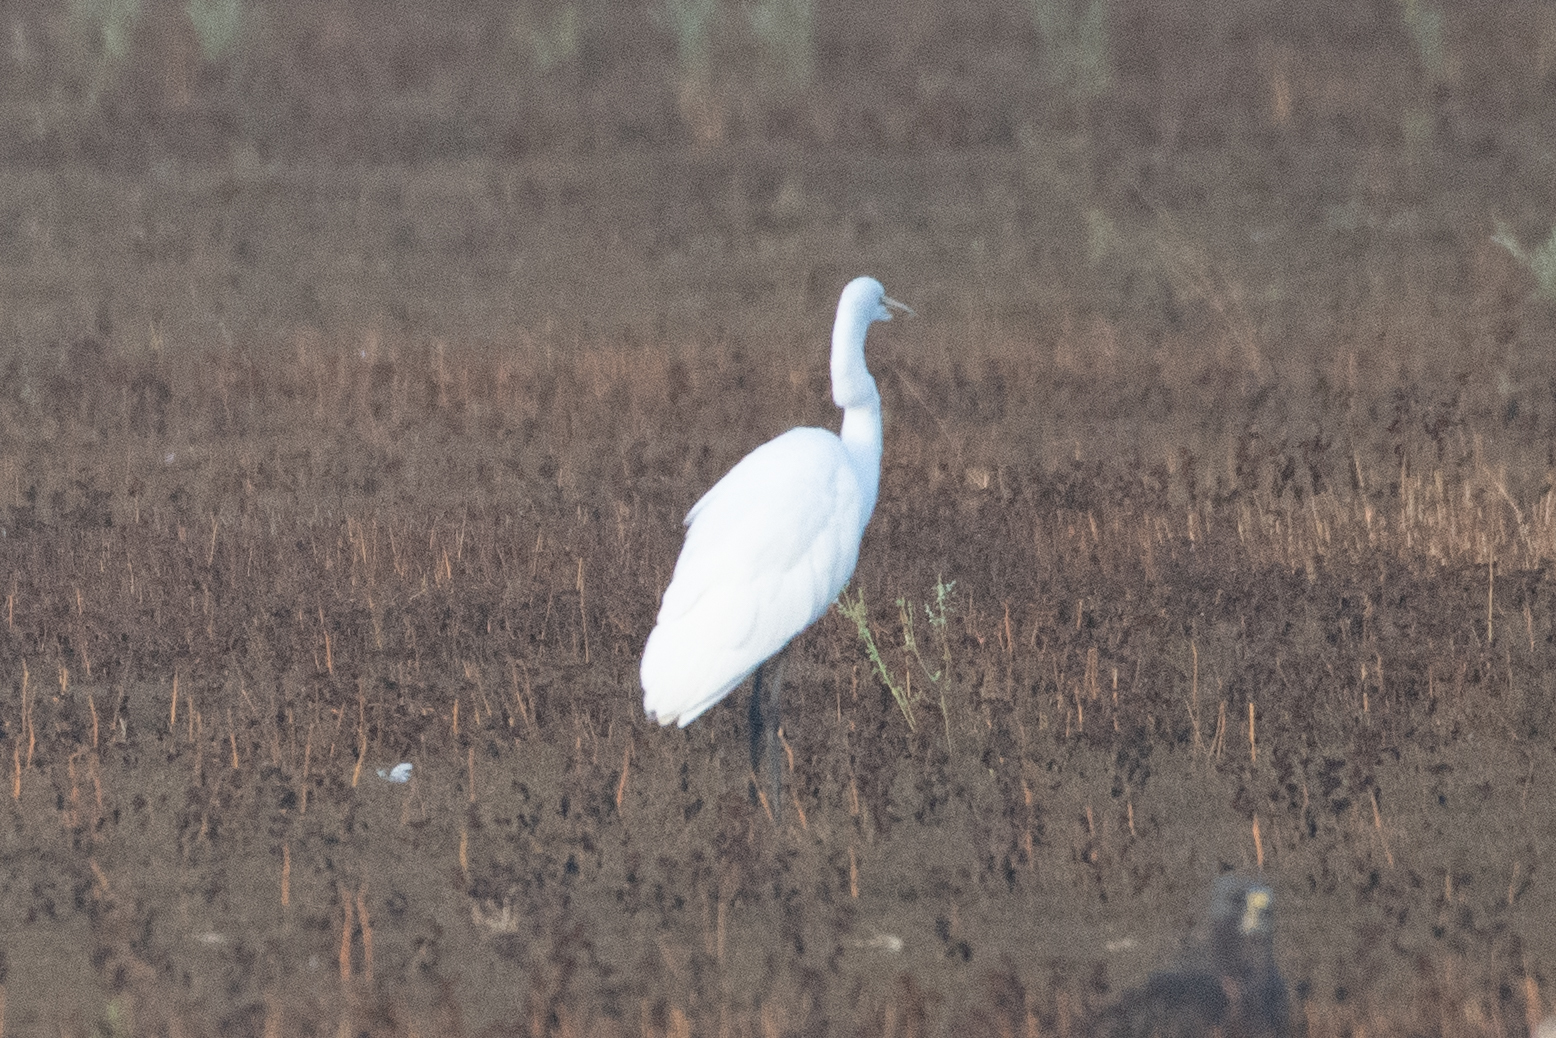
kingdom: Animalia
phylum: Chordata
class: Aves
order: Pelecaniformes
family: Ardeidae
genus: Ardea
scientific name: Ardea alba
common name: Great egret
